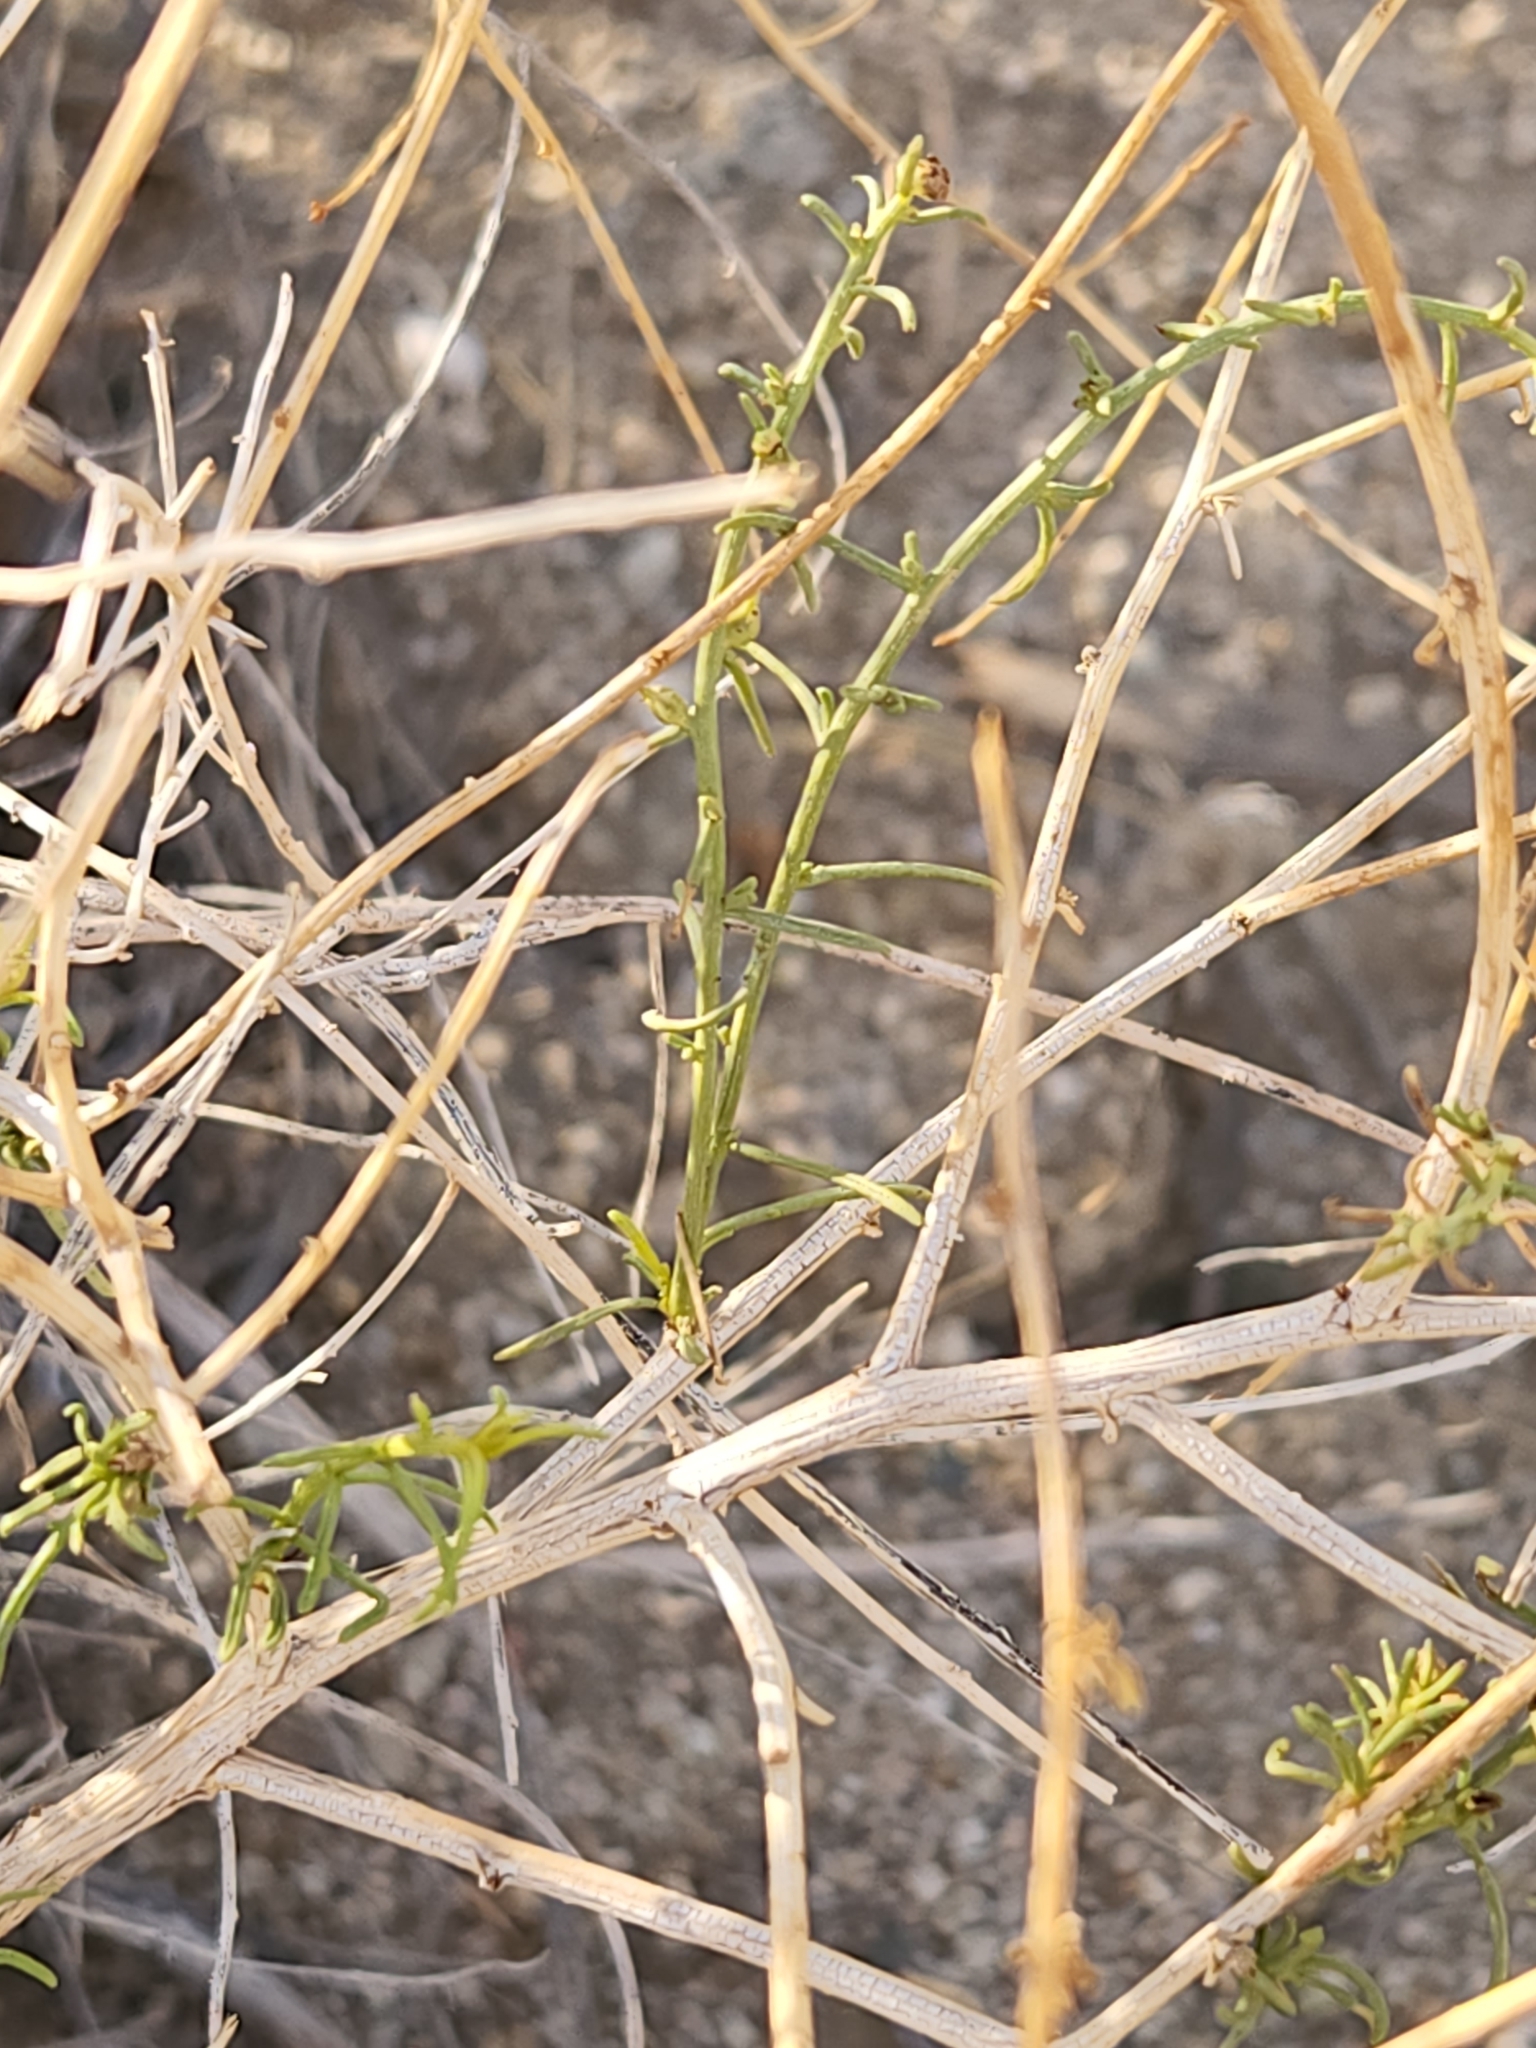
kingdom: Plantae
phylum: Tracheophyta
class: Magnoliopsida
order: Asterales
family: Asteraceae
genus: Ambrosia
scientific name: Ambrosia salsola
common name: Burrobrush
